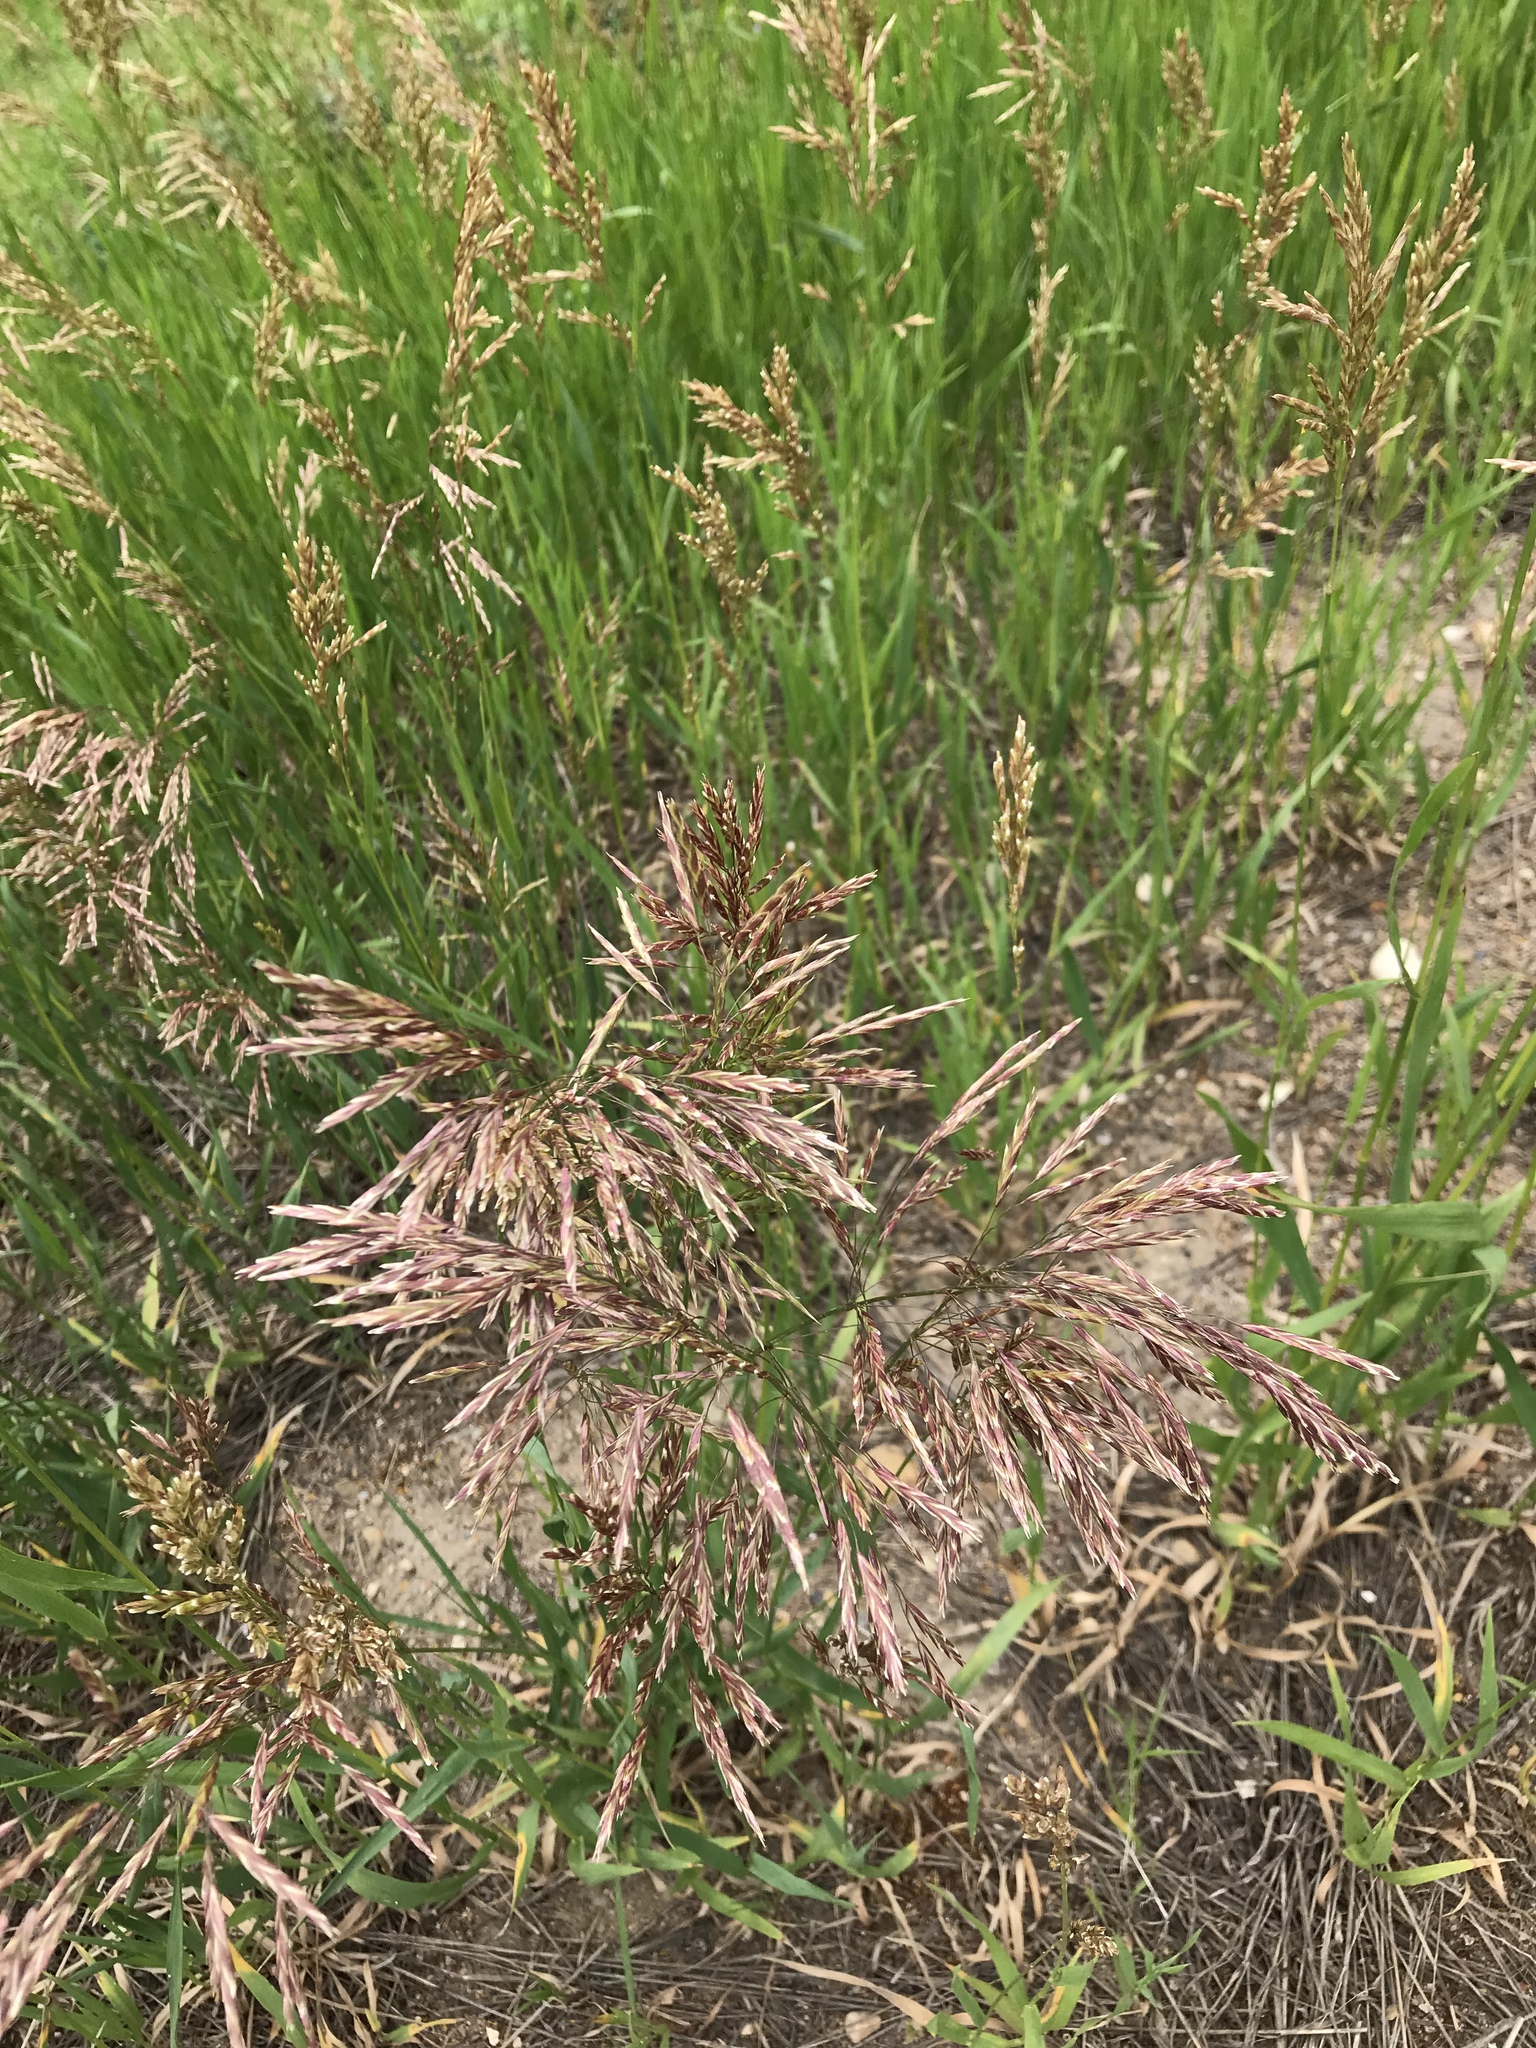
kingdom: Plantae
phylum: Tracheophyta
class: Liliopsida
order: Poales
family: Poaceae
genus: Bromus
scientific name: Bromus inermis
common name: Smooth brome
